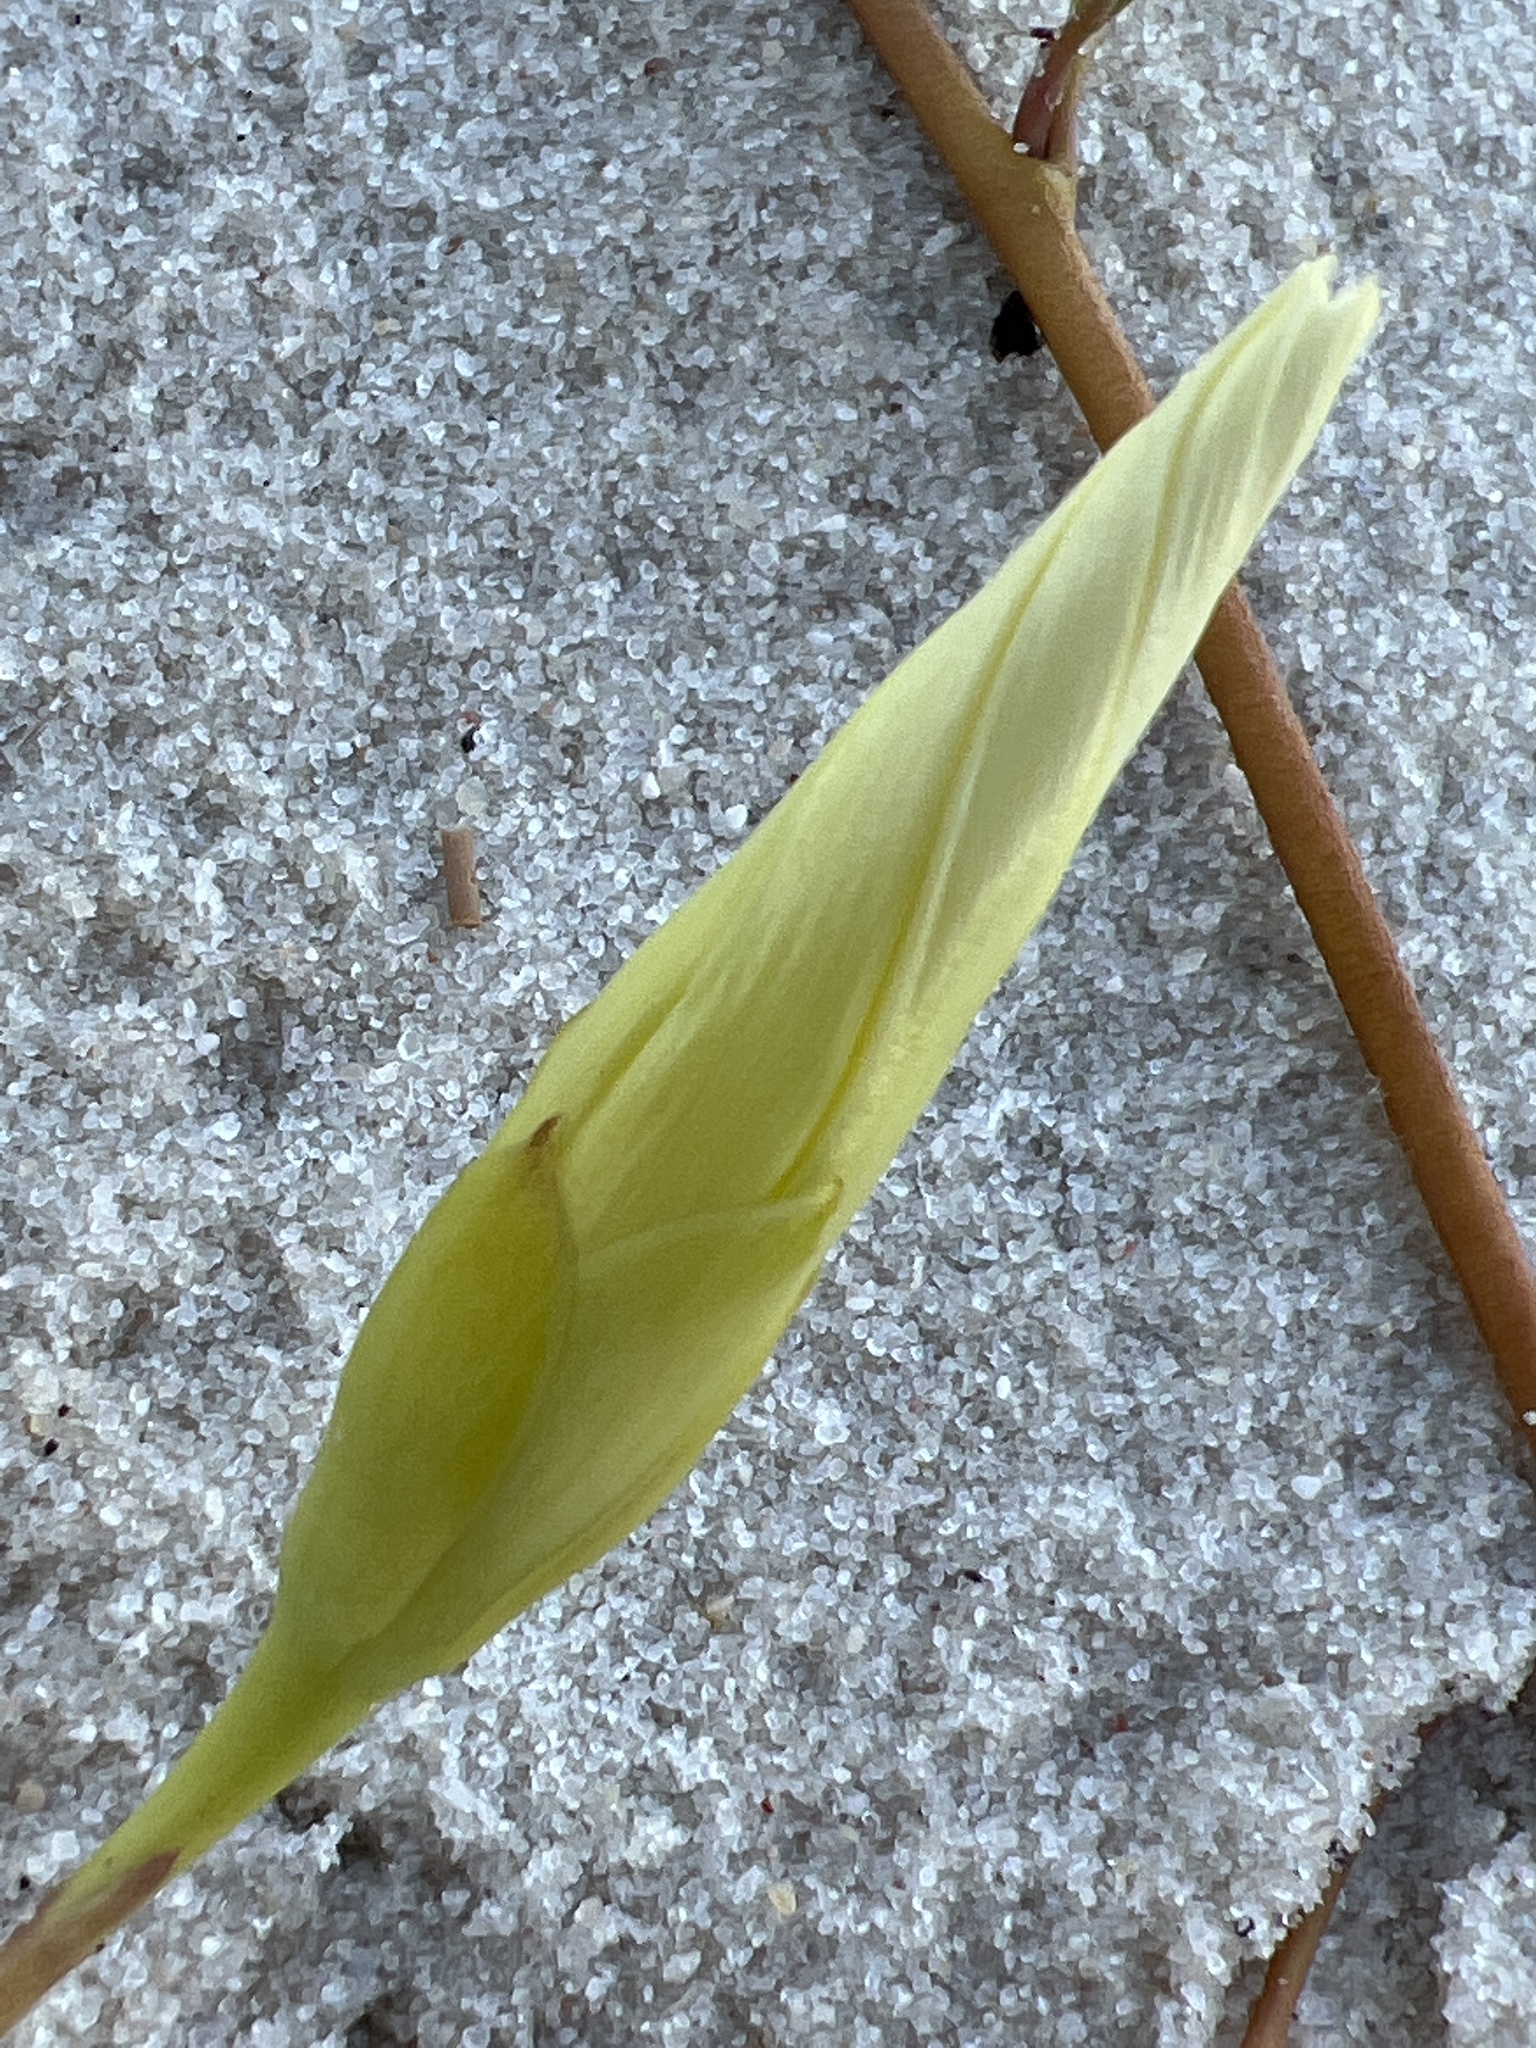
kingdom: Plantae
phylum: Tracheophyta
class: Magnoliopsida
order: Solanales
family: Convolvulaceae
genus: Ipomoea
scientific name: Ipomoea imperati
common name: Fiddle-leaf morning-glory
